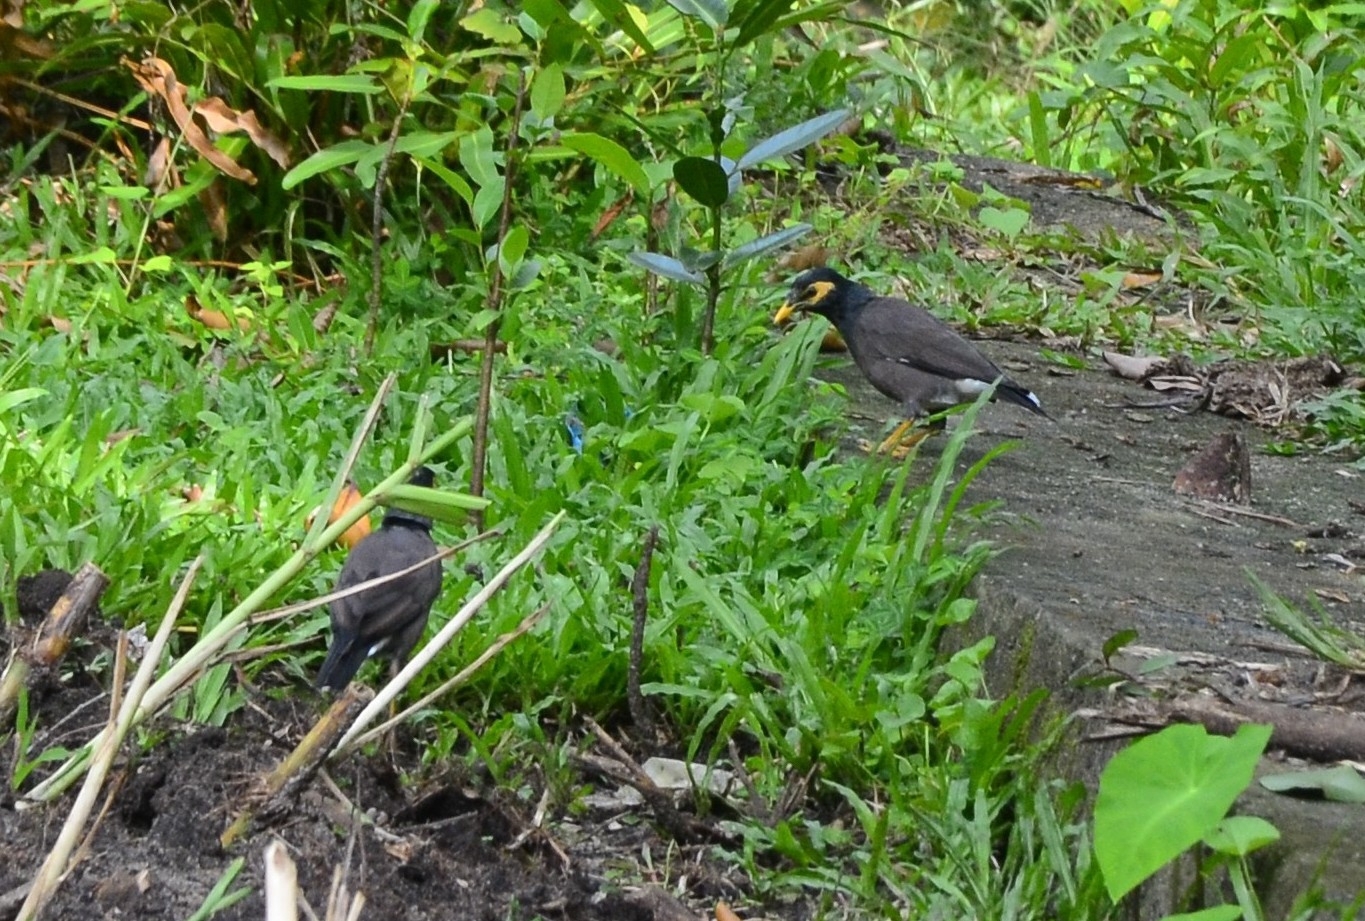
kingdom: Animalia
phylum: Chordata
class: Aves
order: Passeriformes
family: Sturnidae
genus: Acridotheres
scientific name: Acridotheres tristis
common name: Common myna
